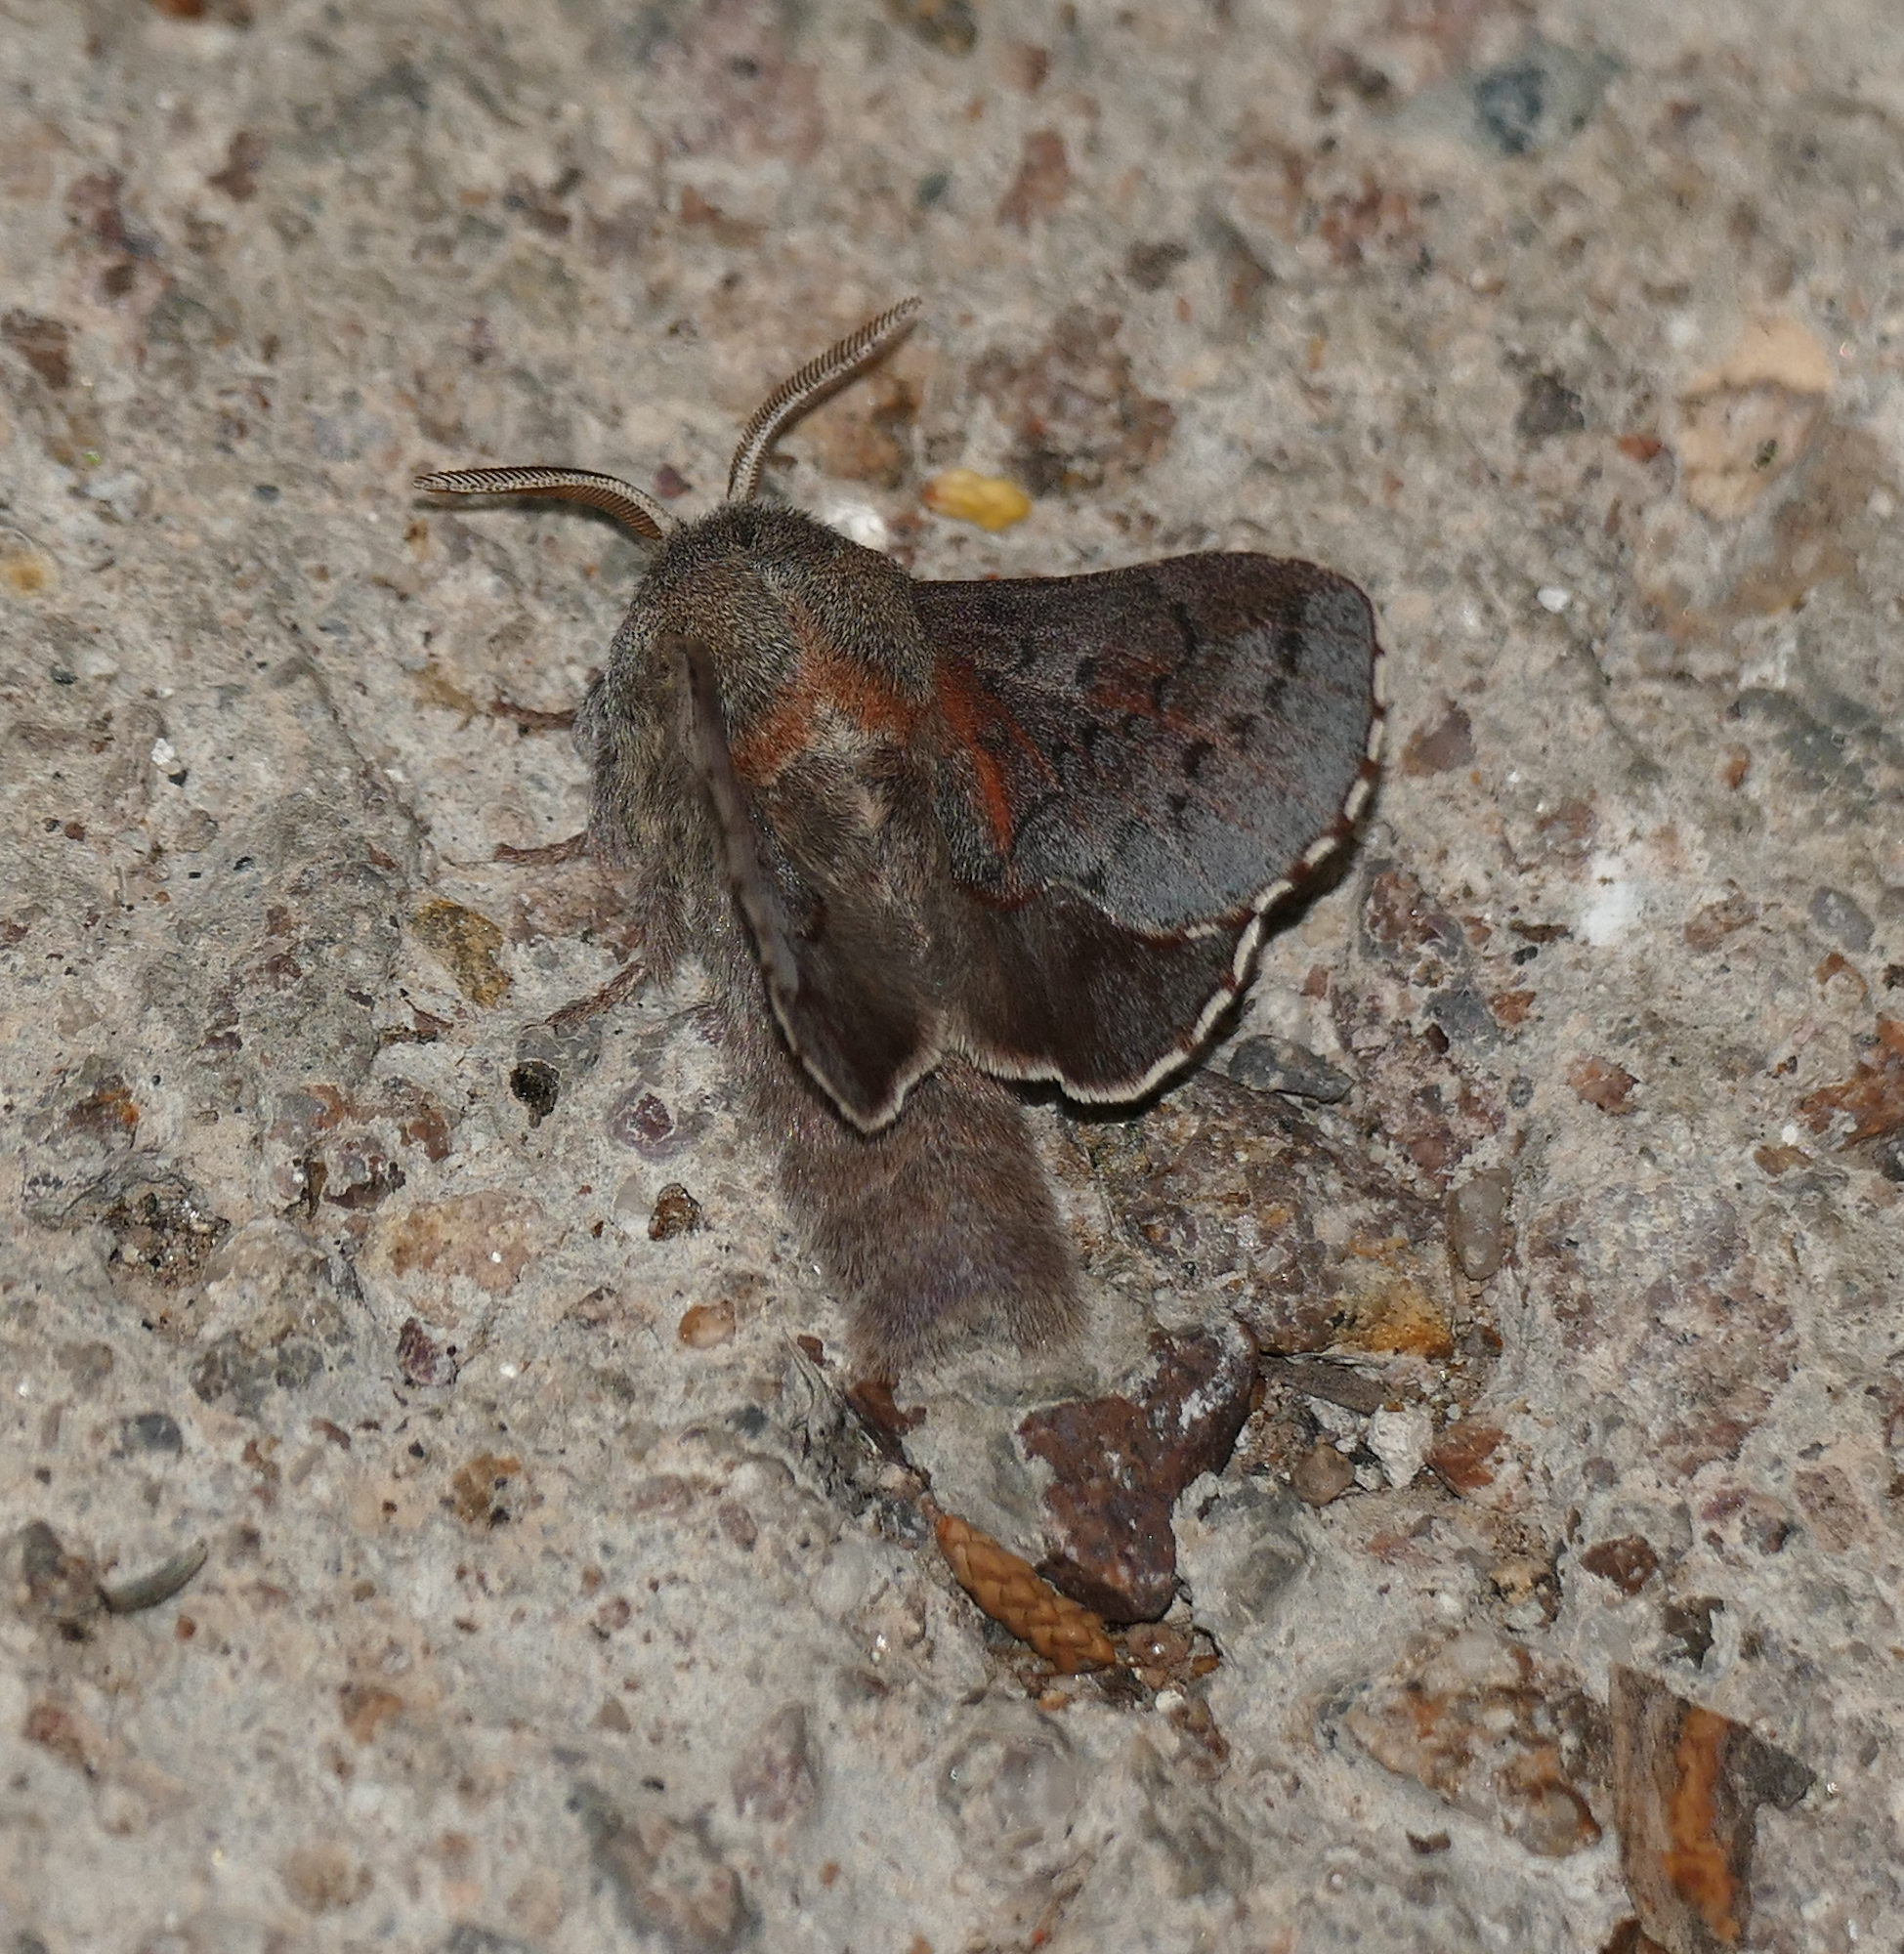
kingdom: Animalia
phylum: Arthropoda
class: Insecta
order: Lepidoptera
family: Lasiocampidae
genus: Phyllodesma
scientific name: Phyllodesma americana
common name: American lappet moth
